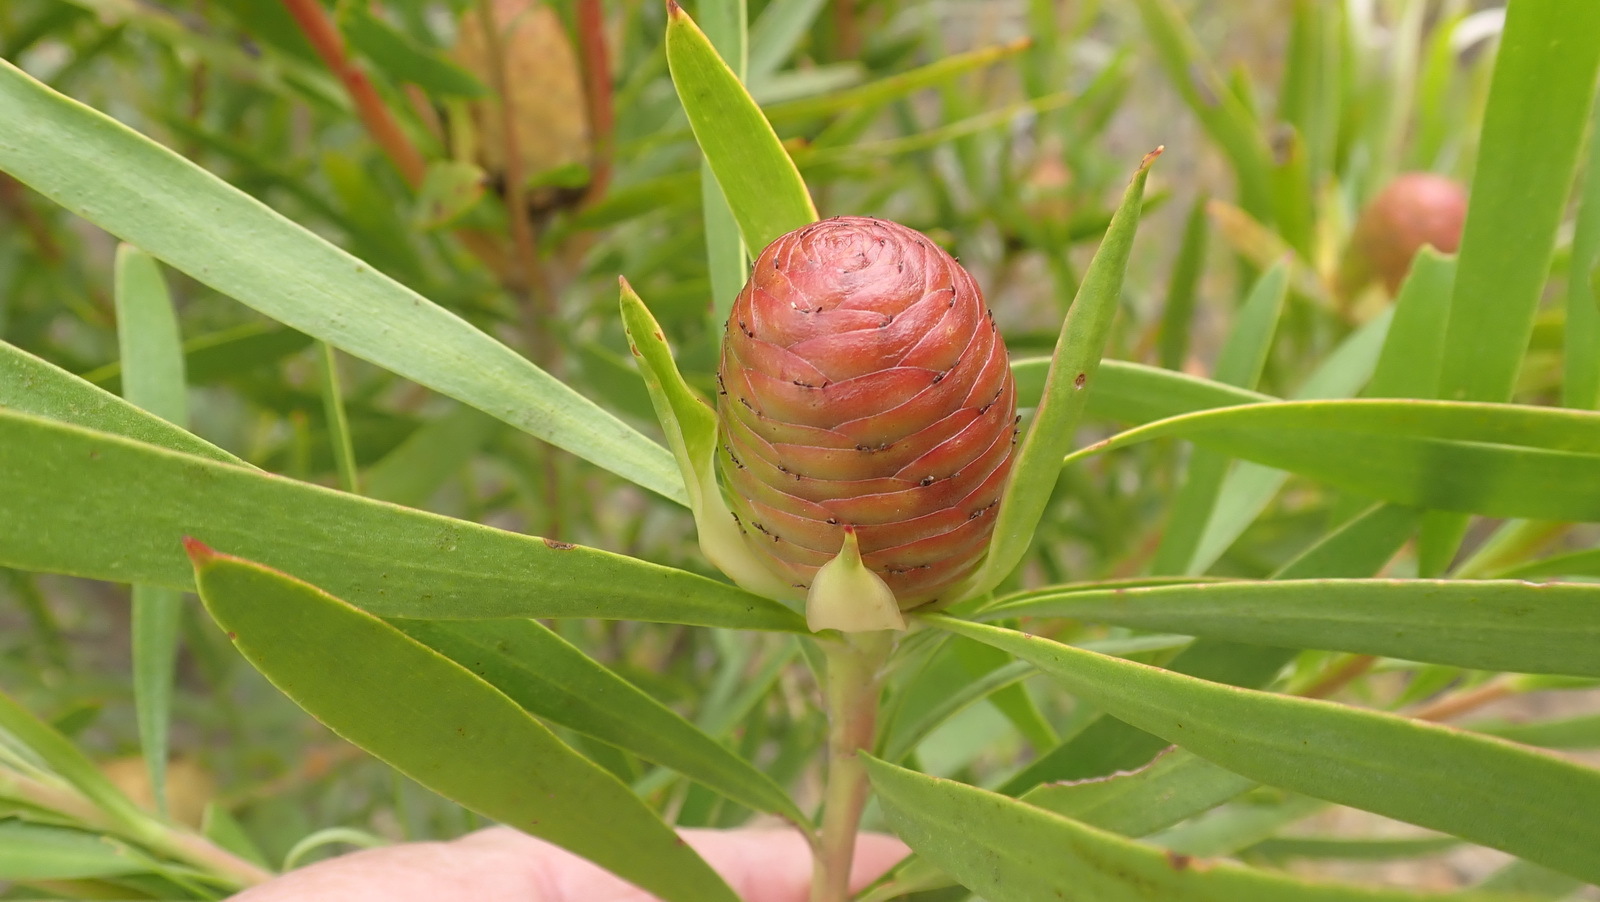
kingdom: Plantae
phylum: Tracheophyta
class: Magnoliopsida
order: Proteales
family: Proteaceae
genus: Leucadendron
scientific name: Leucadendron eucalyptifolium
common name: Gum-leaved conebush
